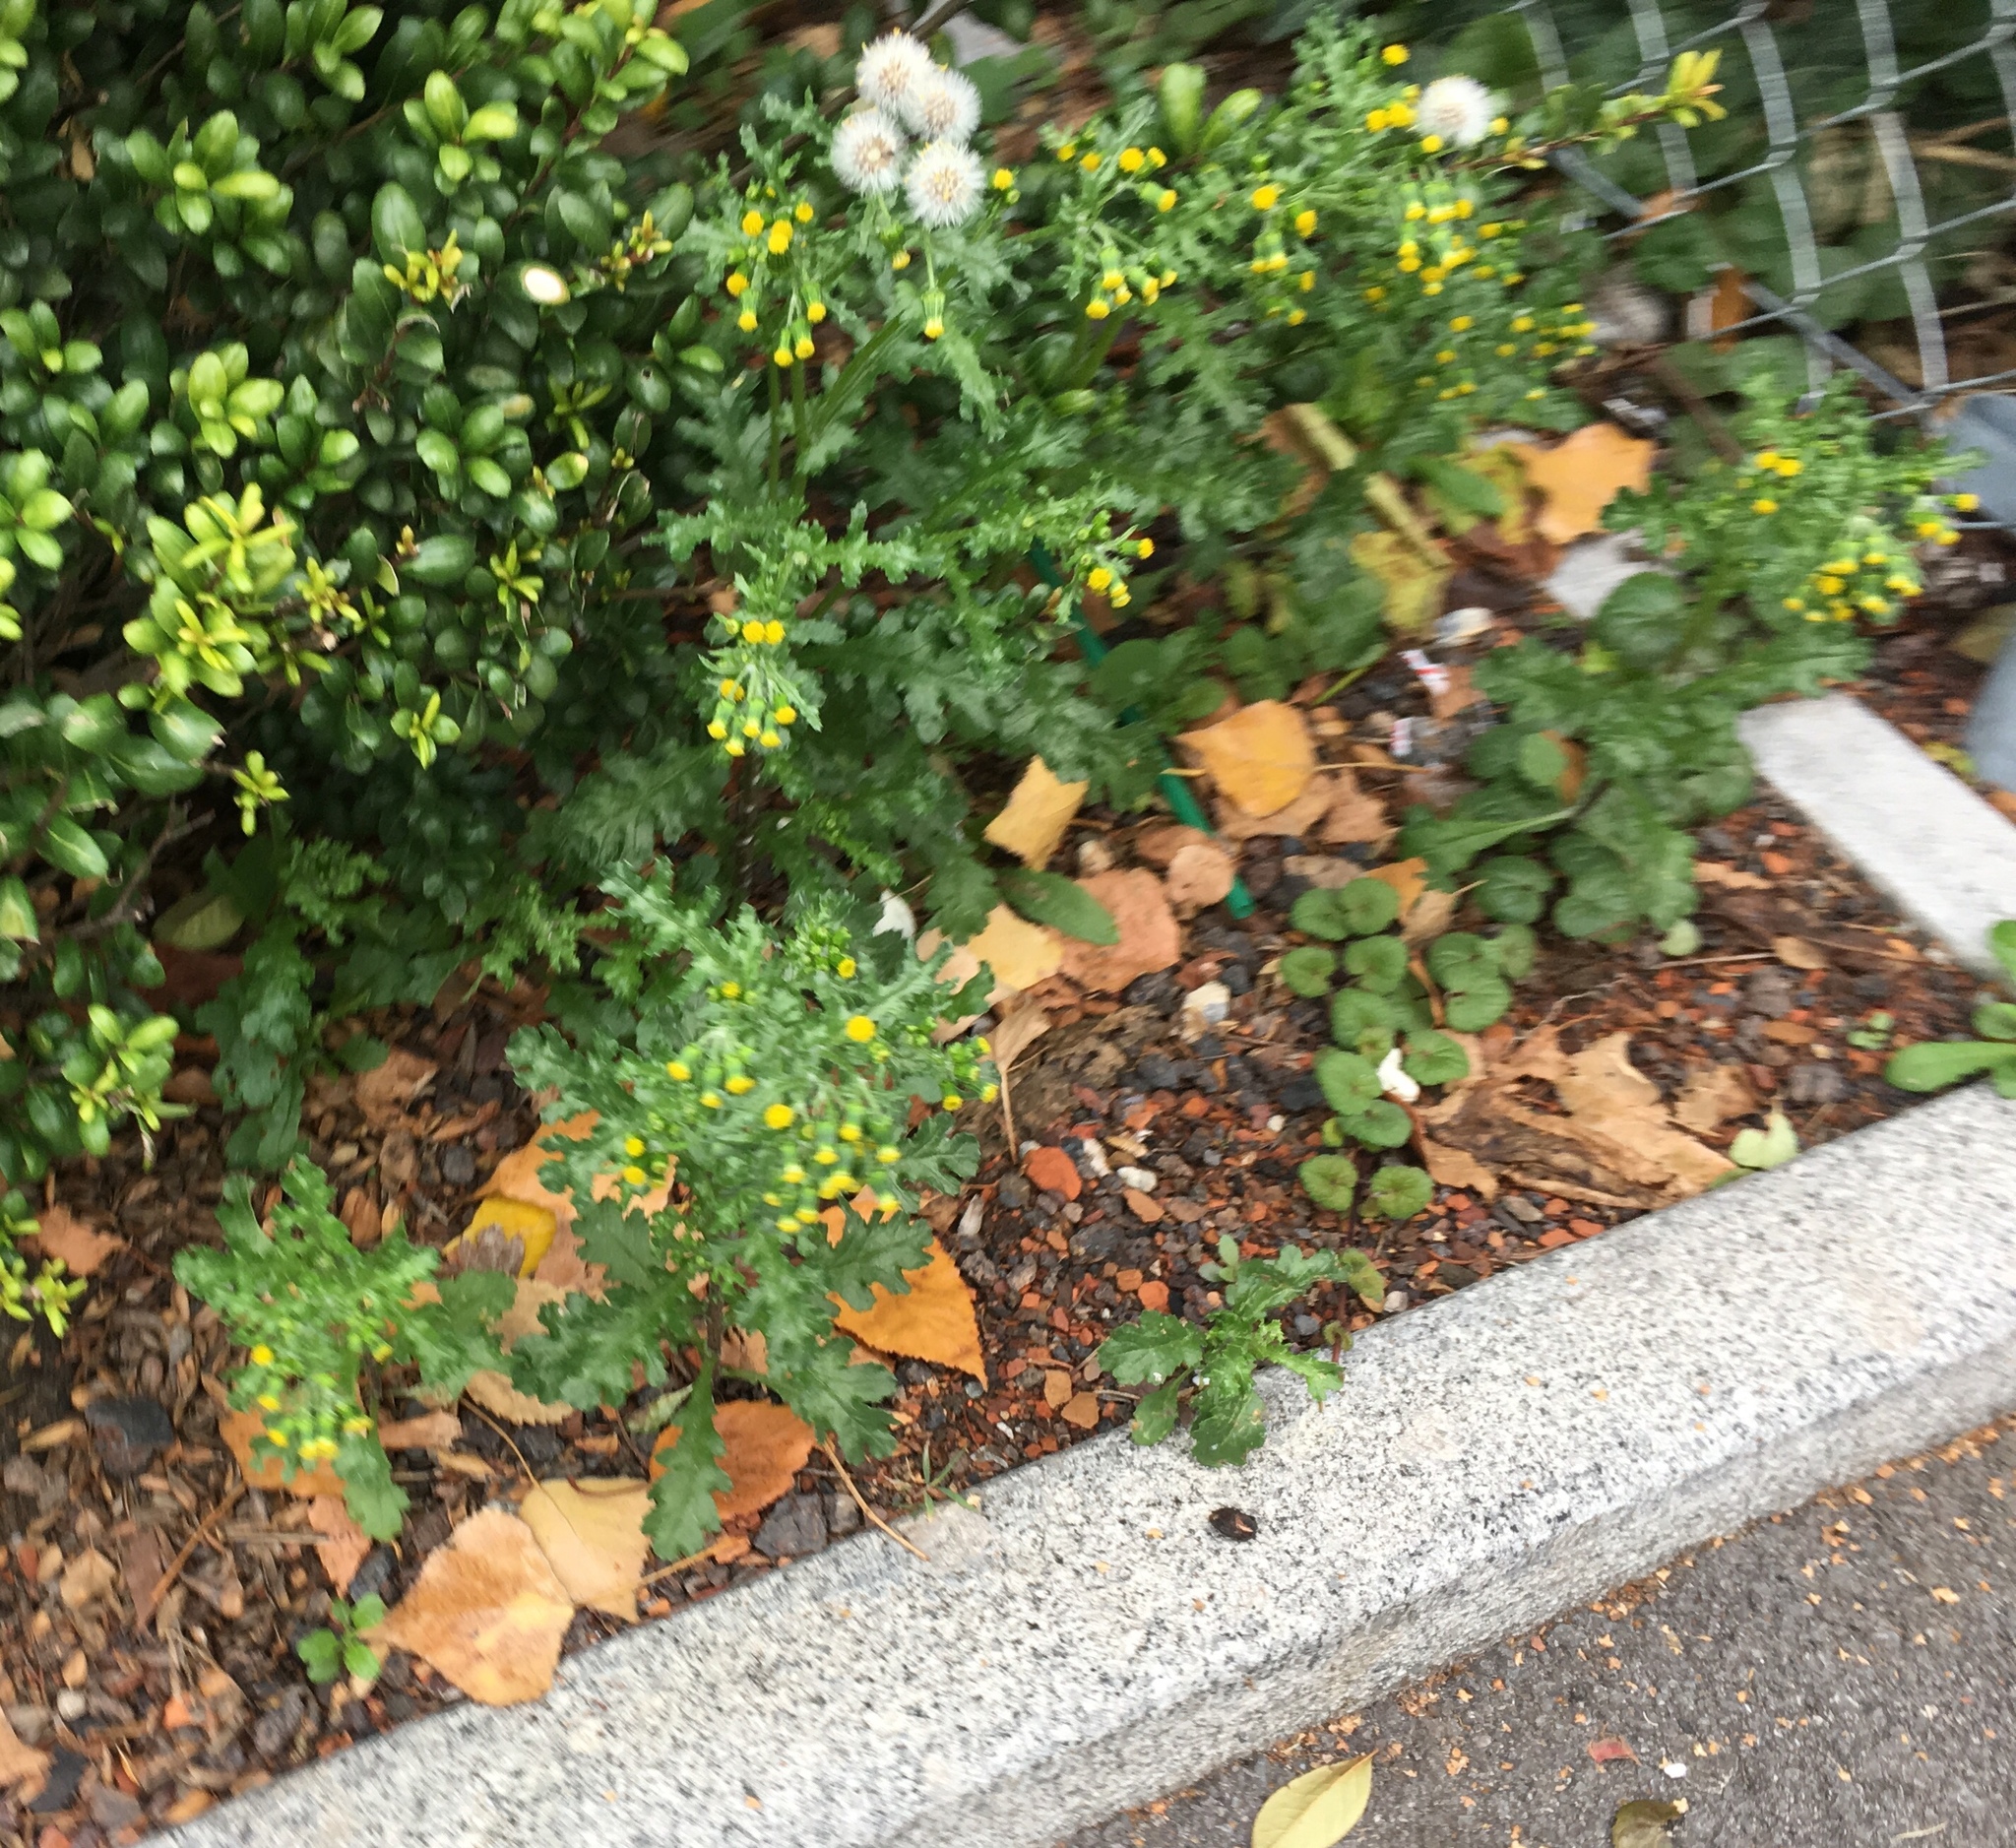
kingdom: Plantae
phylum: Tracheophyta
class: Magnoliopsida
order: Asterales
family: Asteraceae
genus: Senecio
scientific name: Senecio vulgaris
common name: Old-man-in-the-spring
